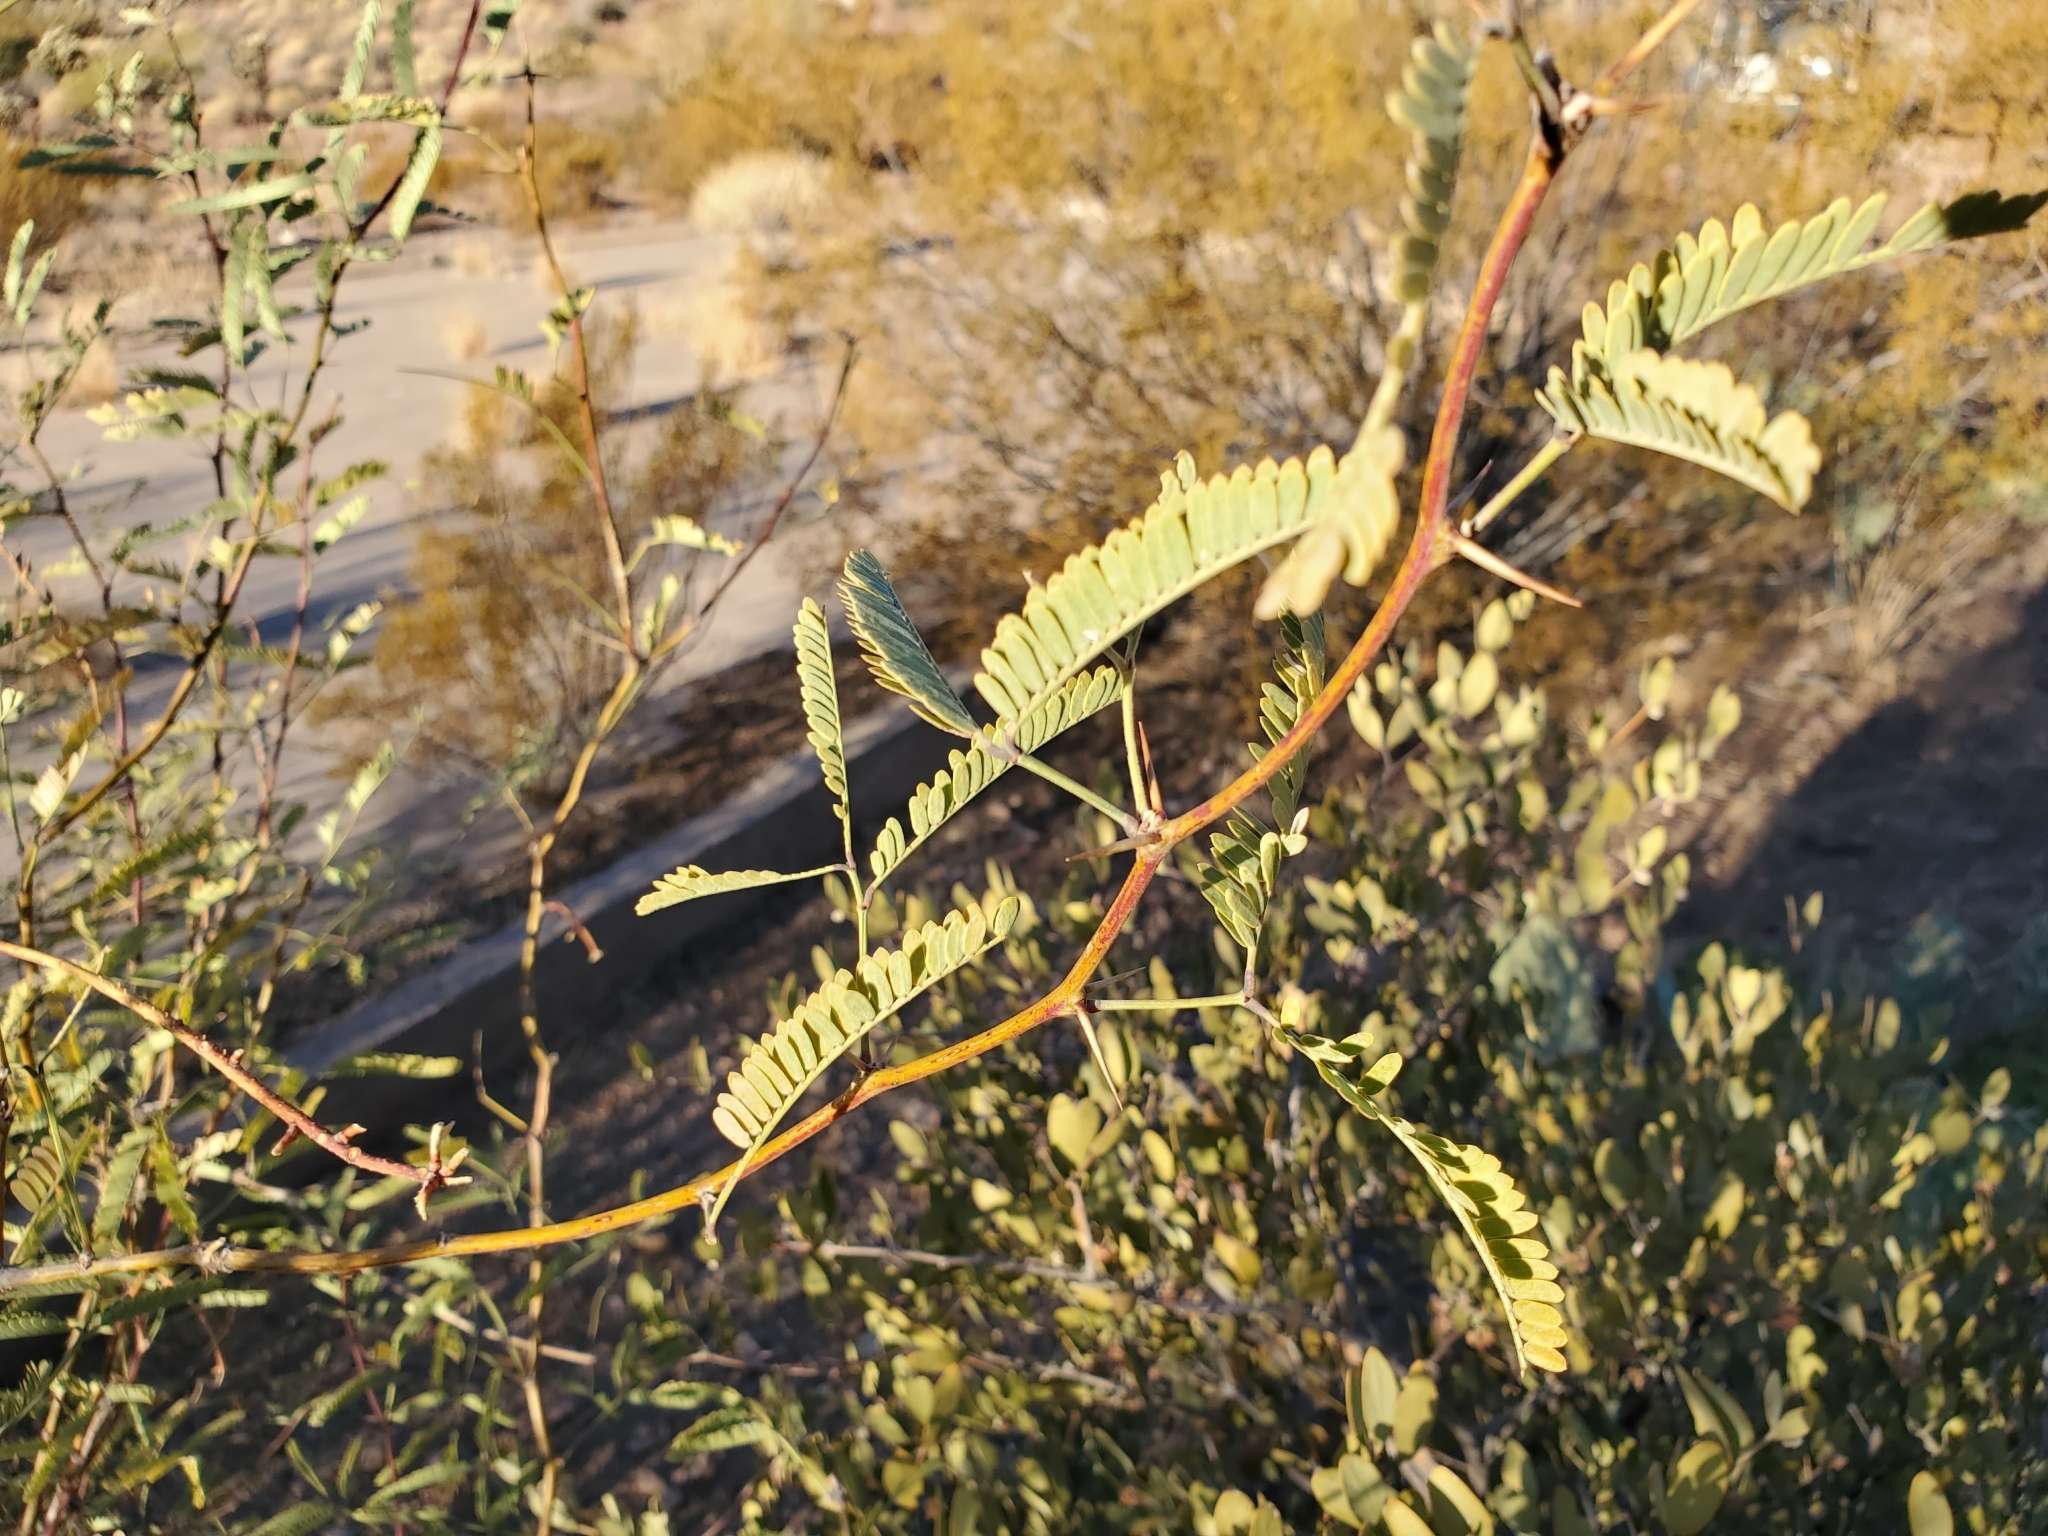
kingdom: Plantae
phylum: Tracheophyta
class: Magnoliopsida
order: Fabales
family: Fabaceae
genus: Prosopis
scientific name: Prosopis velutina
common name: Velvet mesquite
